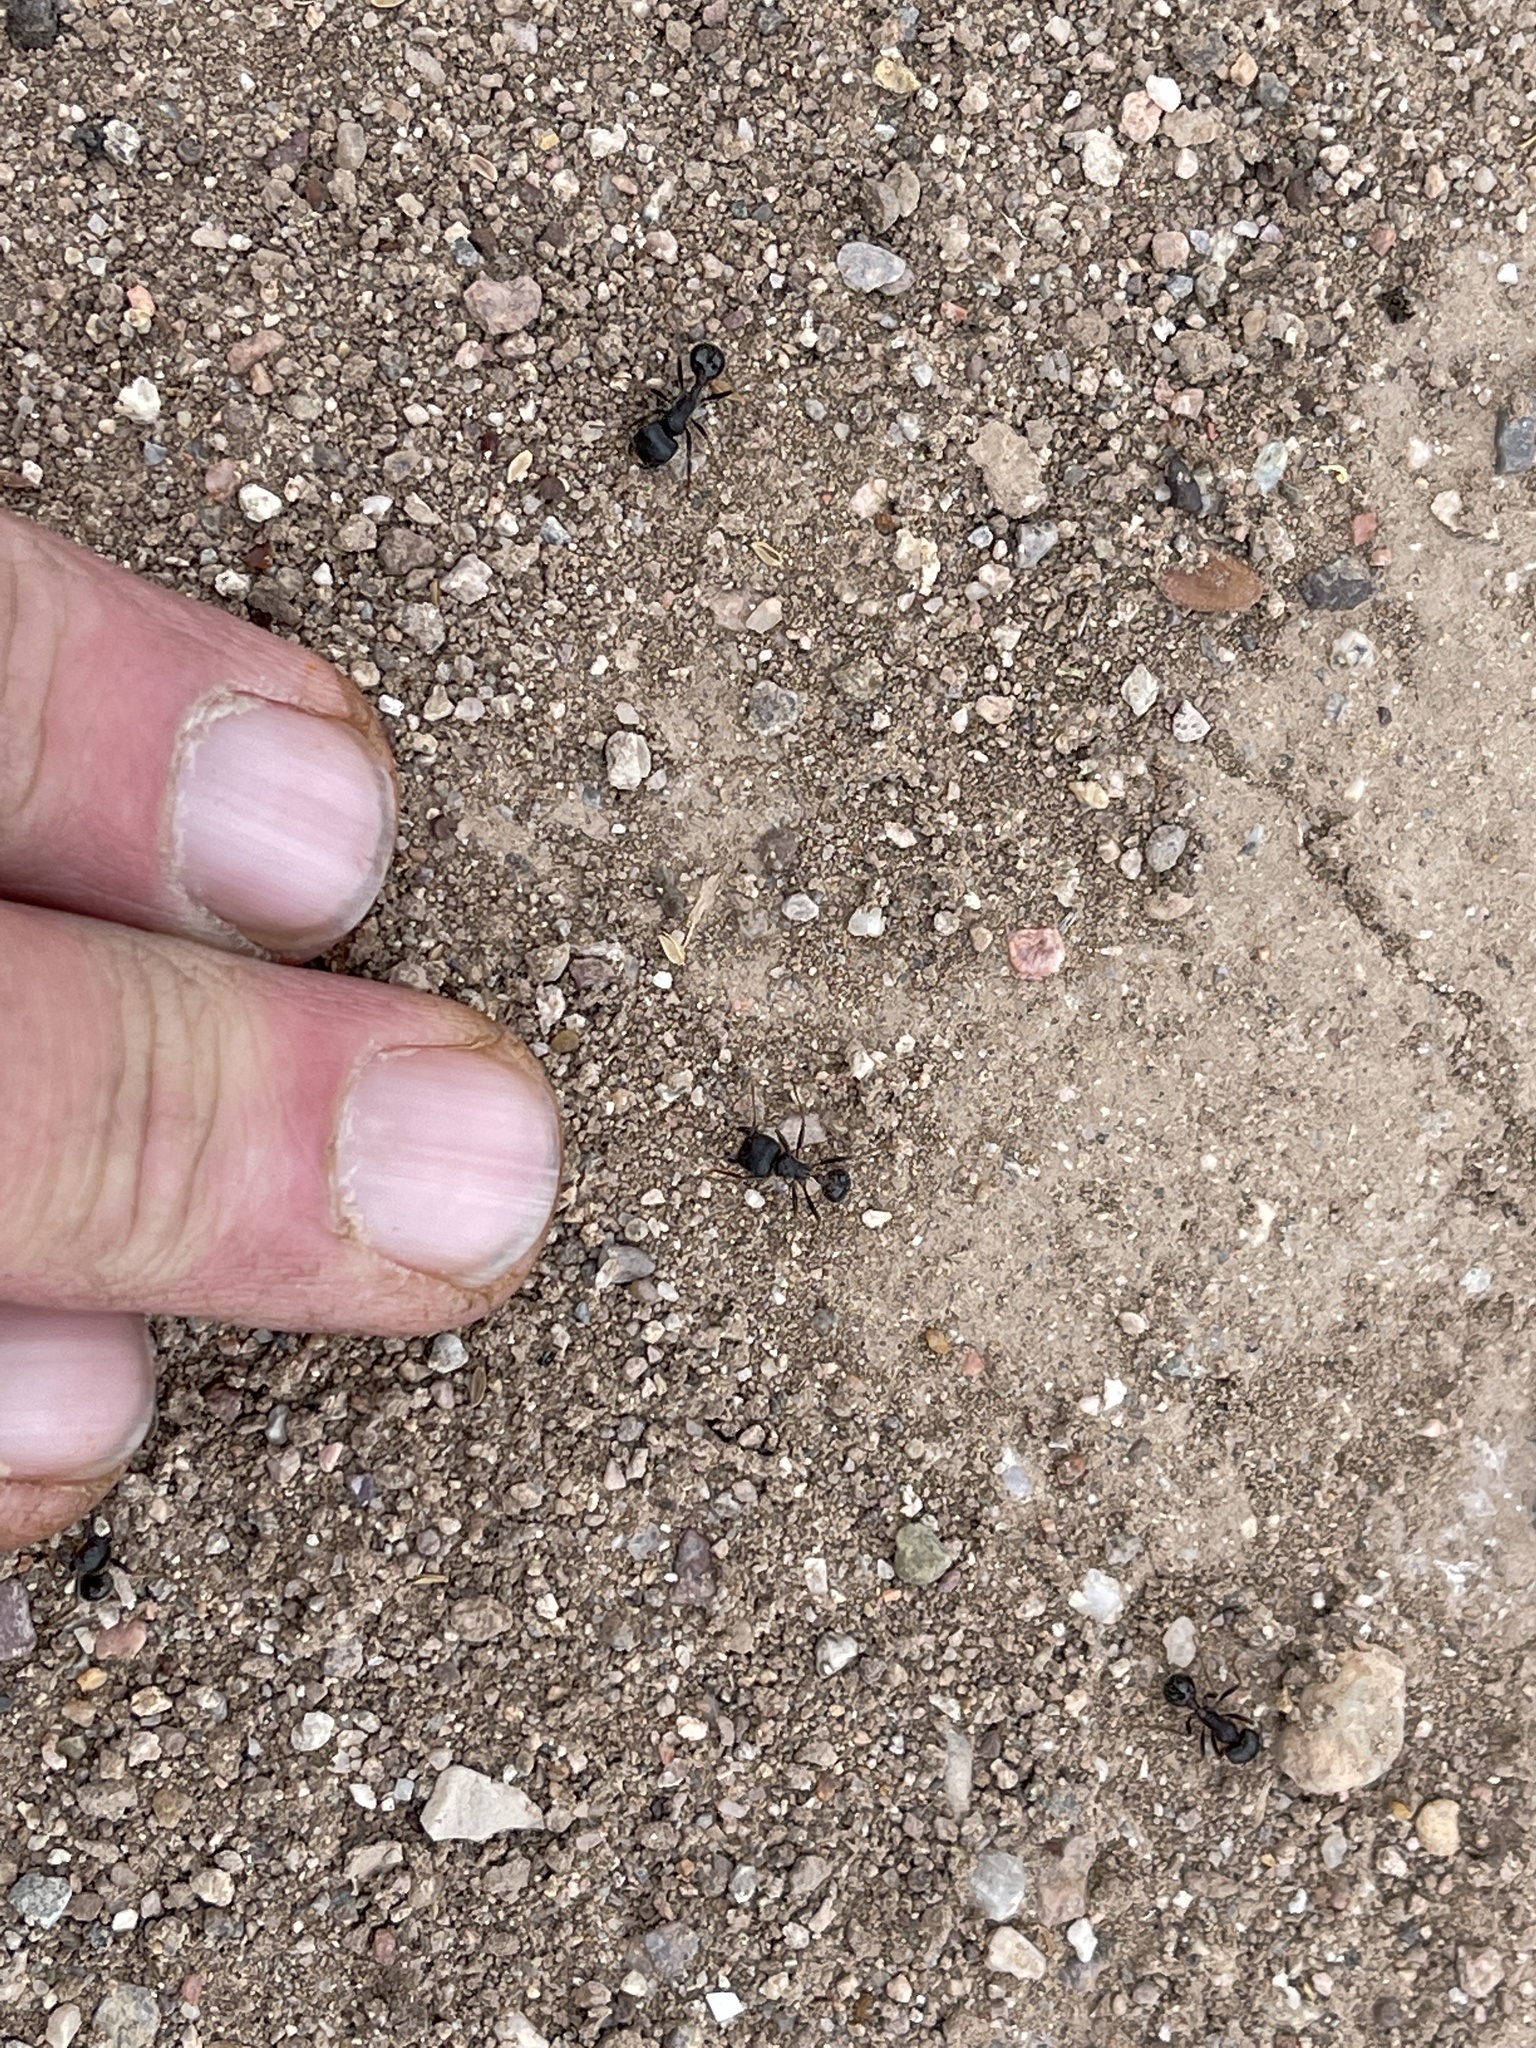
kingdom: Animalia
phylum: Arthropoda
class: Insecta
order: Hymenoptera
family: Formicidae
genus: Pogonomyrmex
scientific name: Pogonomyrmex rugosus
